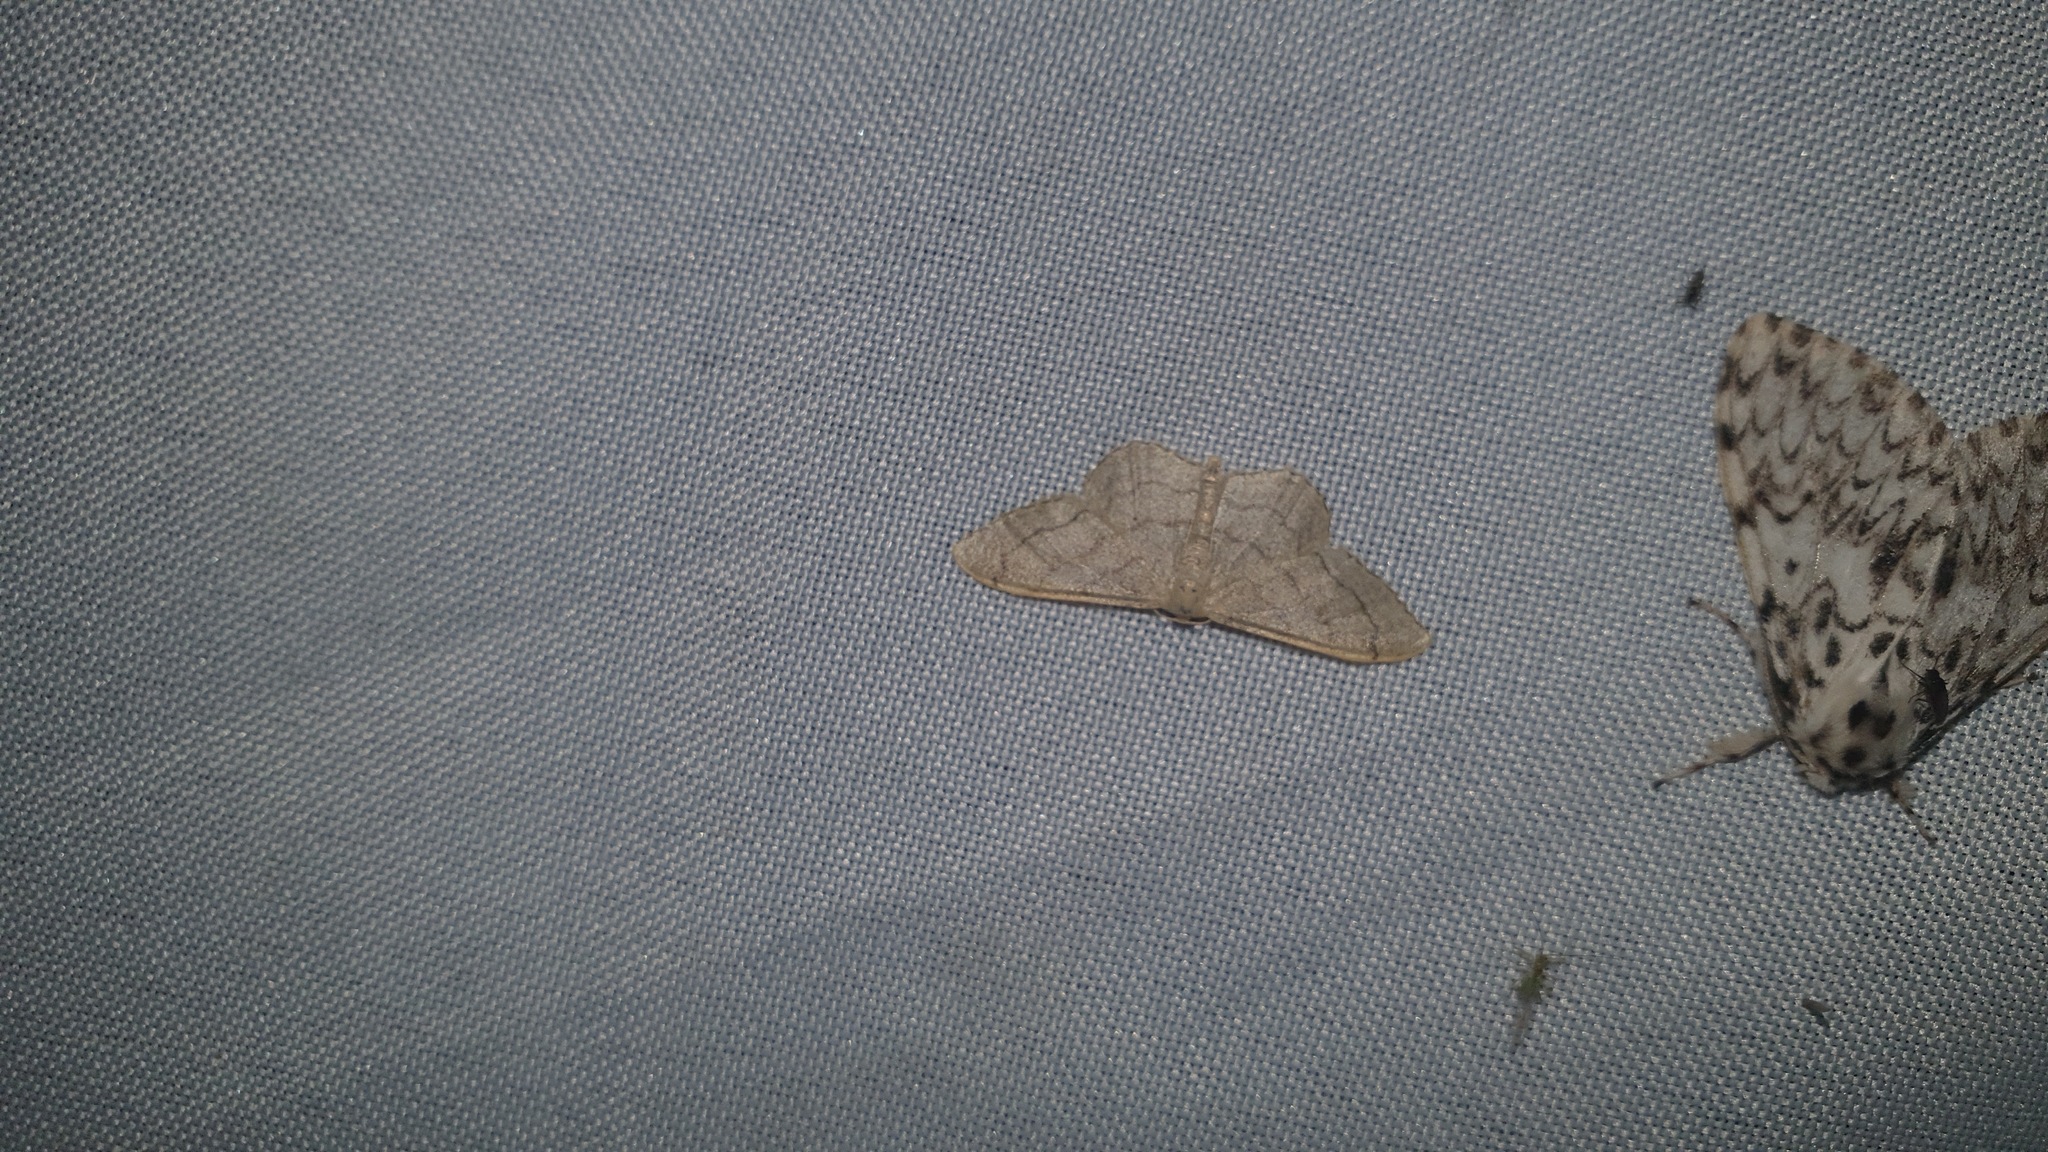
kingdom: Animalia
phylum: Arthropoda
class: Insecta
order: Lepidoptera
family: Geometridae
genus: Idaea
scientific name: Idaea aversata
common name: Riband wave
